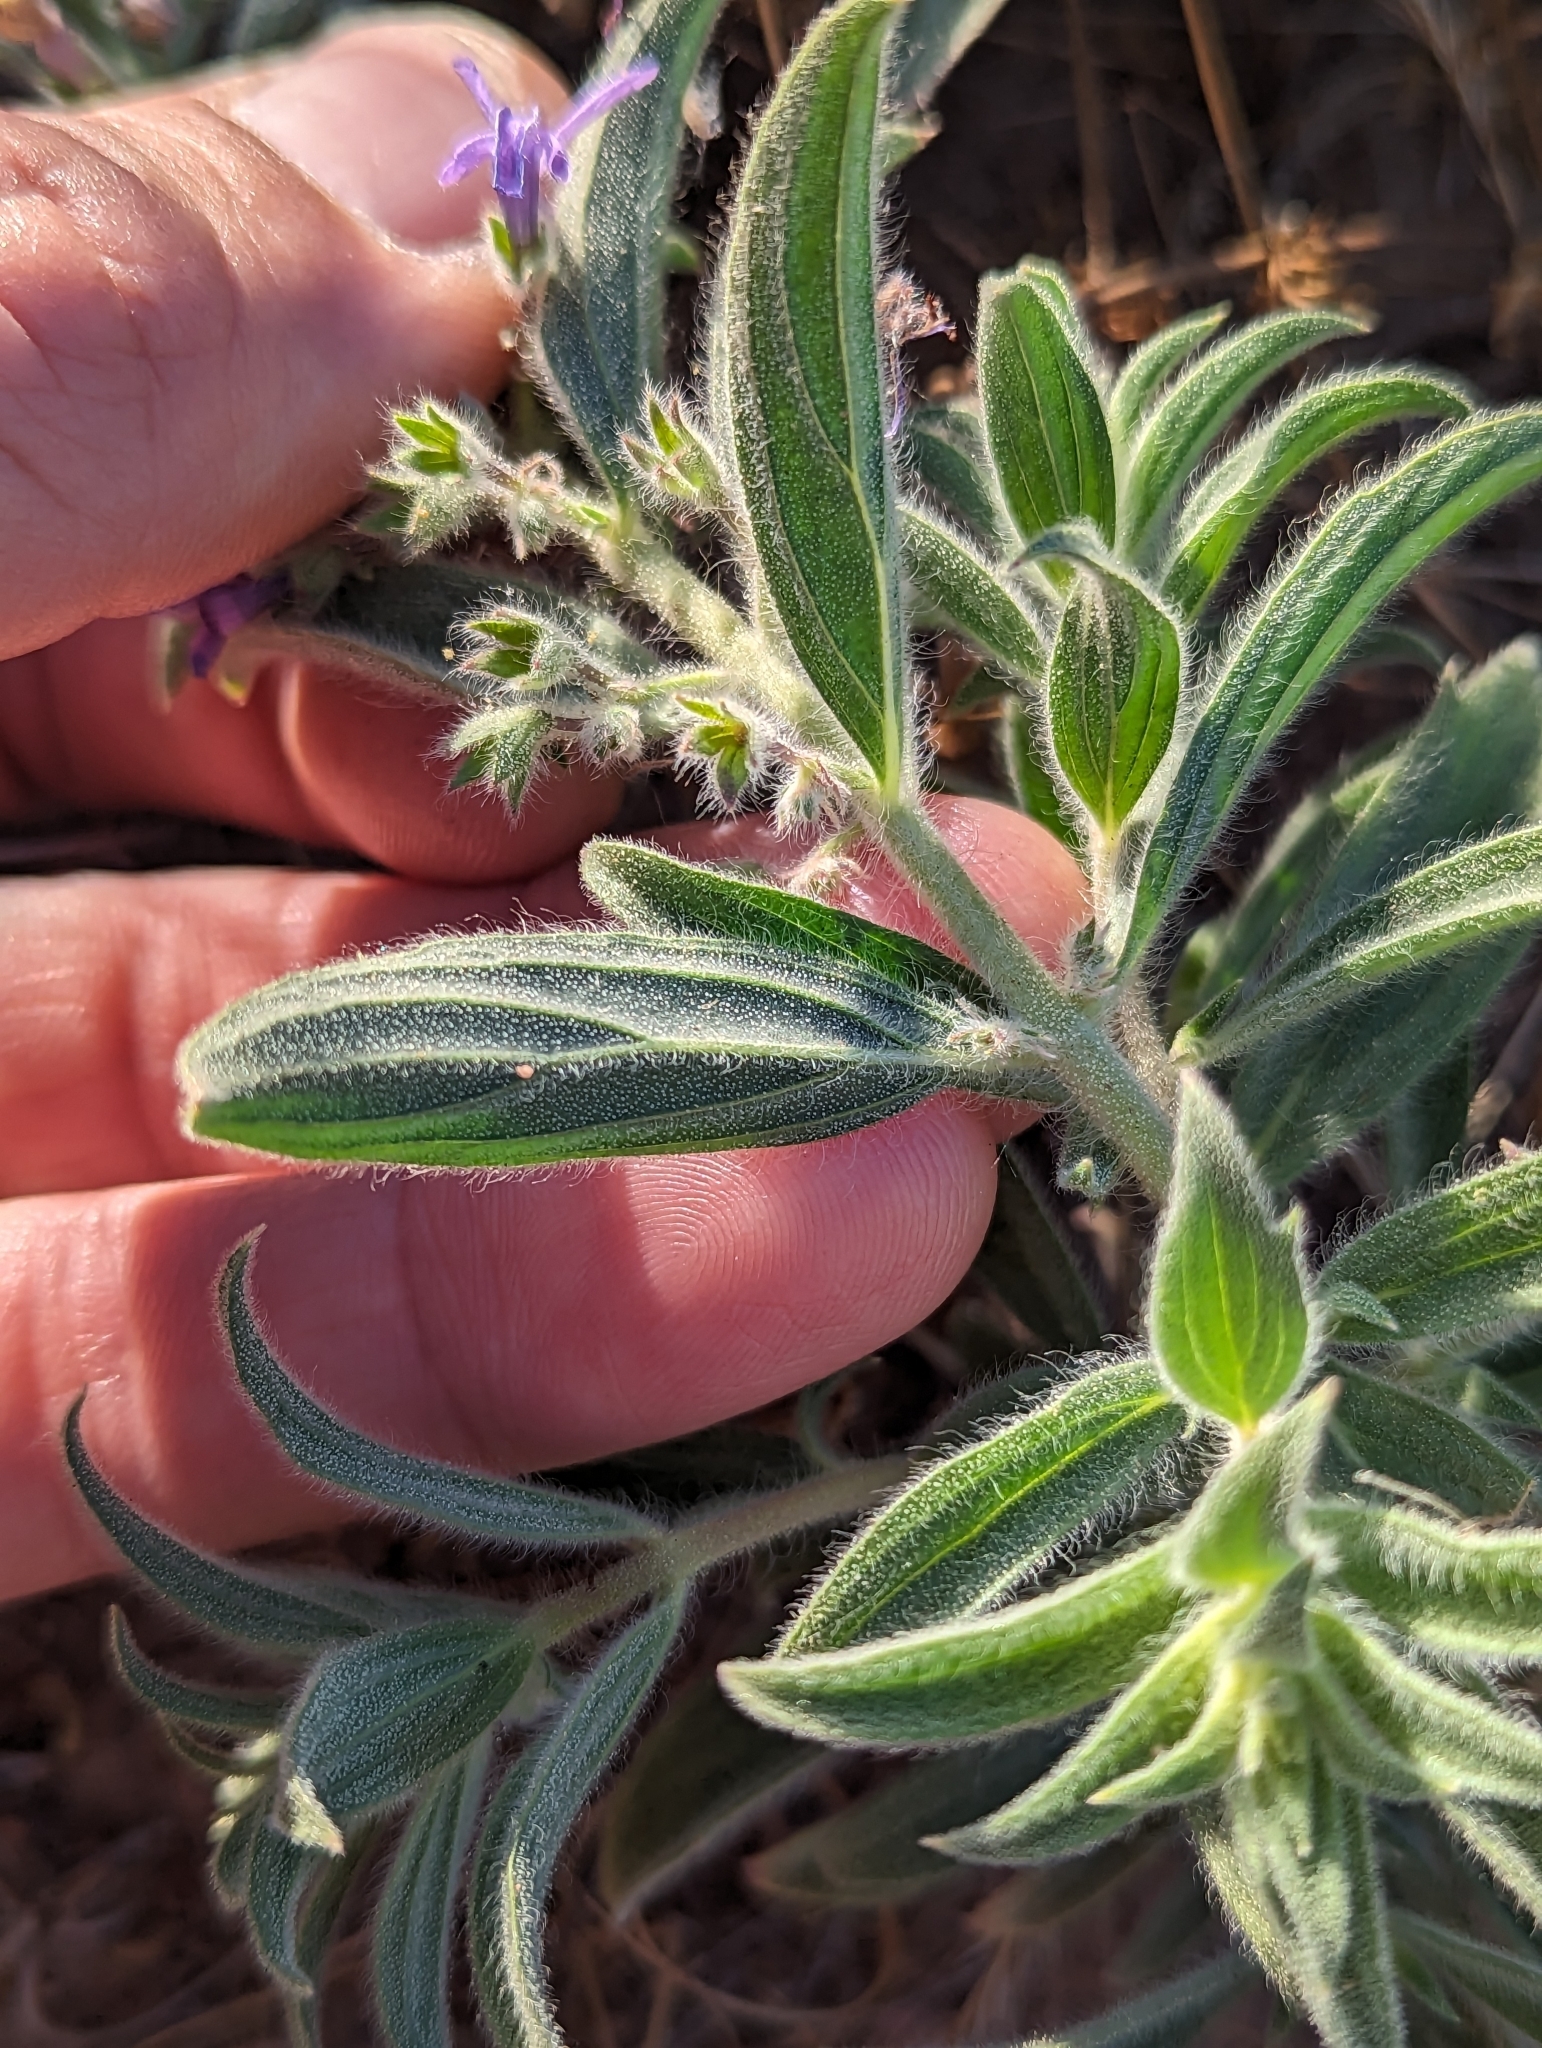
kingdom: Plantae
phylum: Tracheophyta
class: Magnoliopsida
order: Lamiales
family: Lamiaceae
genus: Trichostema
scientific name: Trichostema lanceolatum
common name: Vinegar-weed
